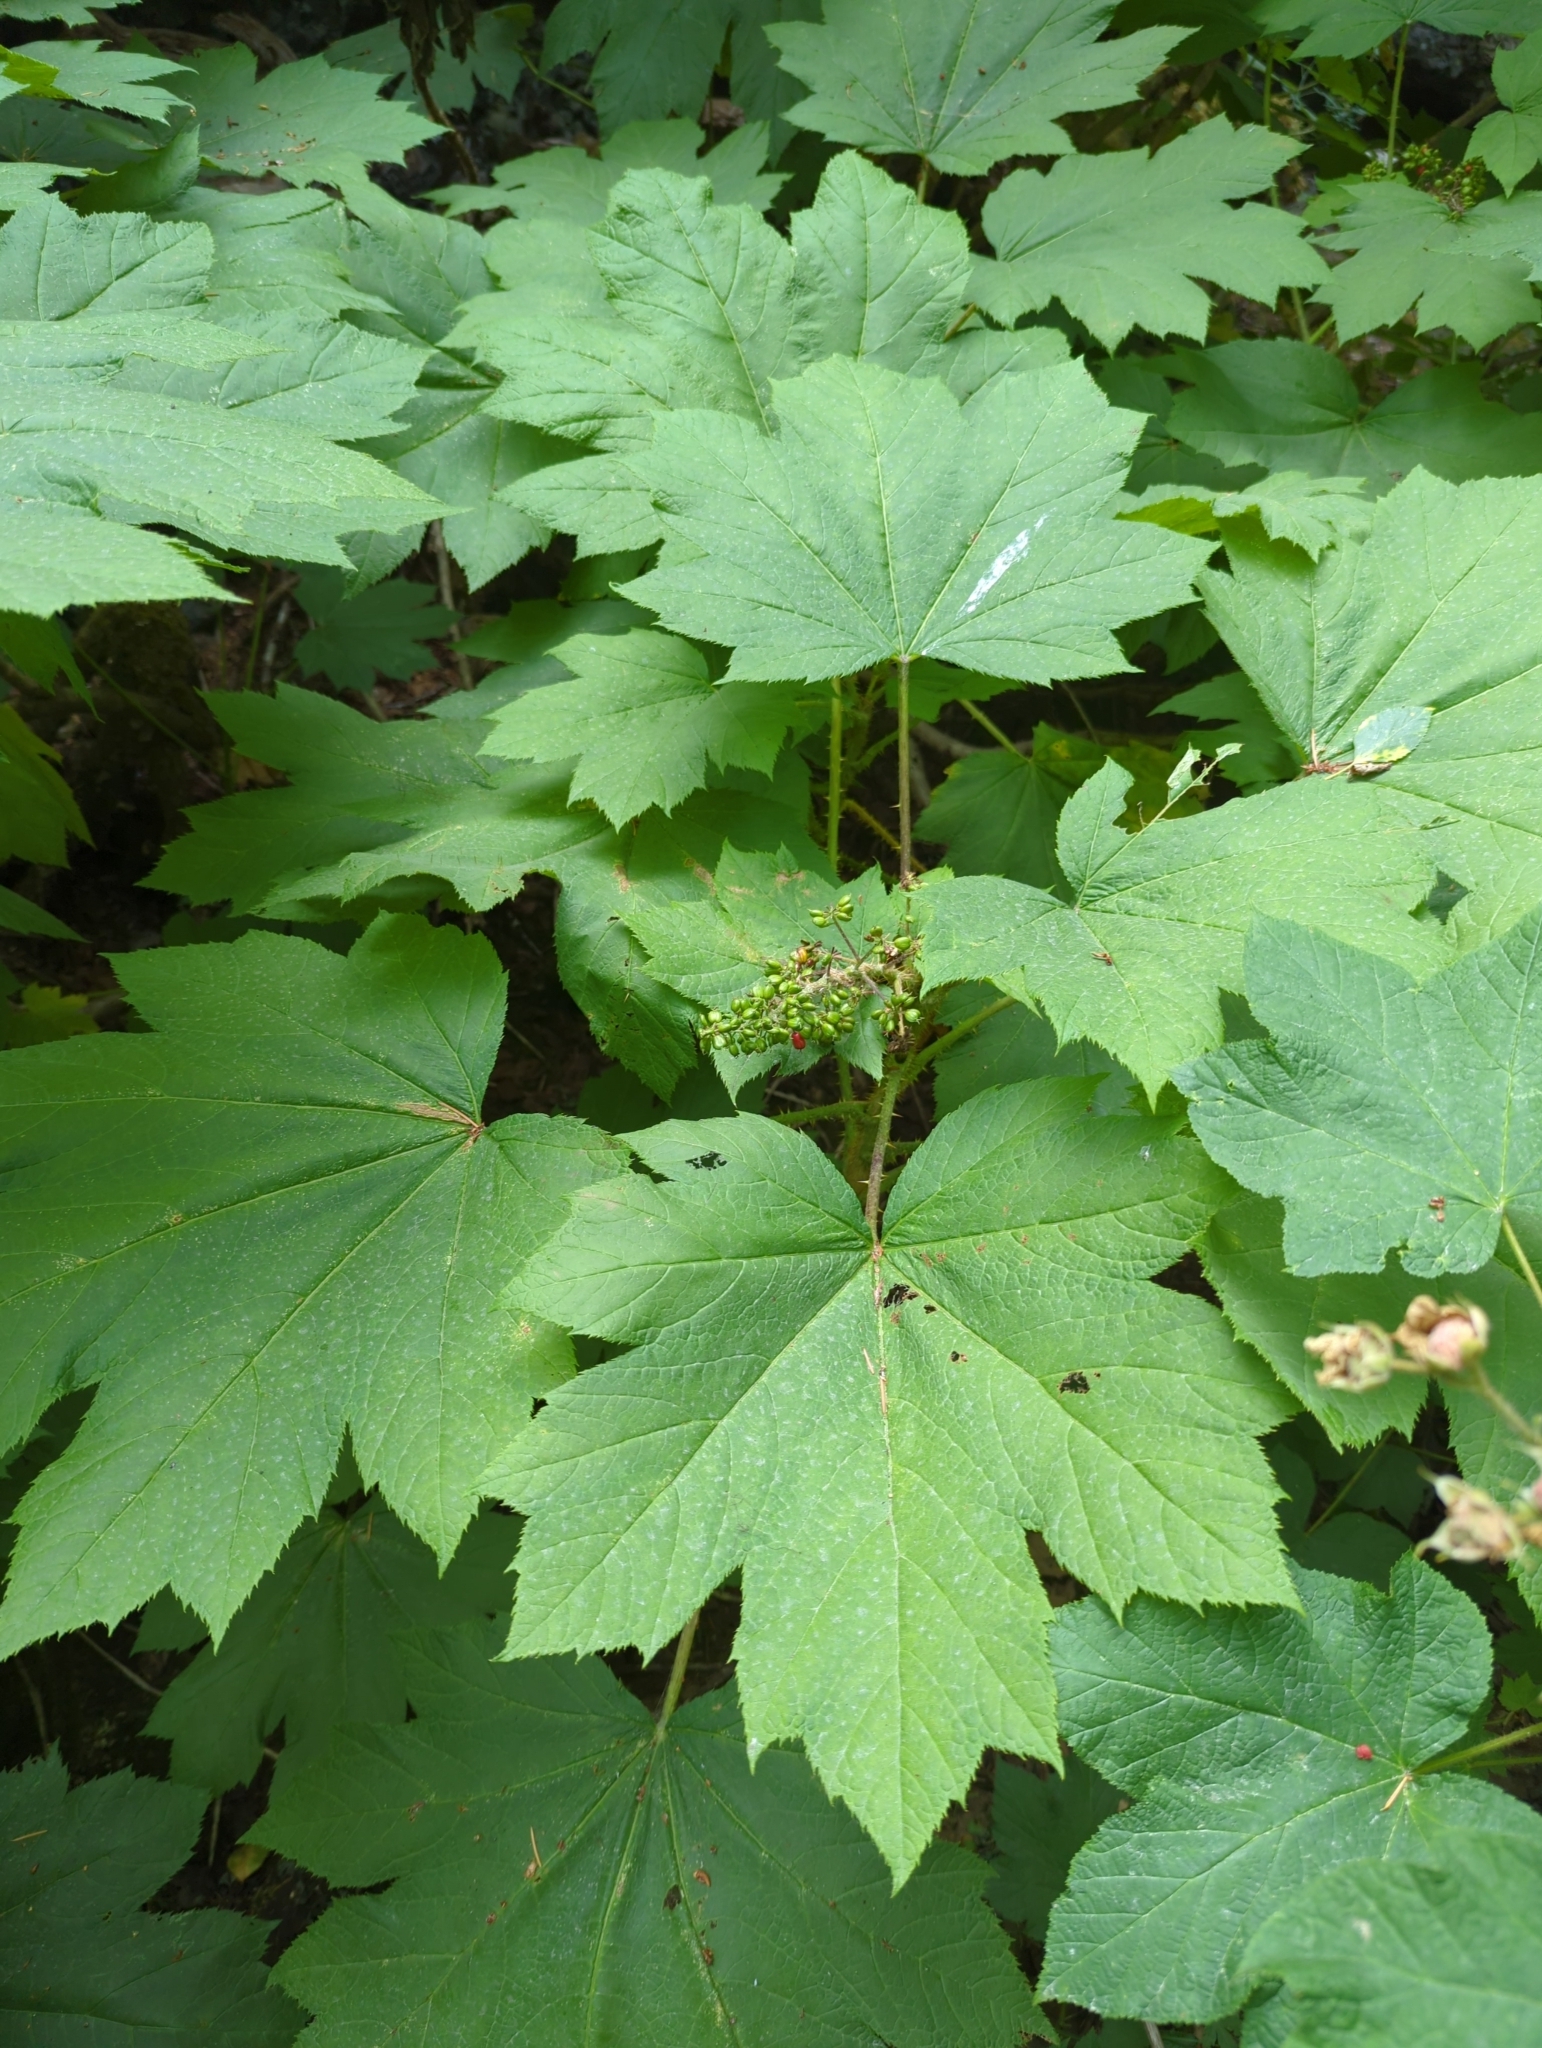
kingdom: Plantae
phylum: Tracheophyta
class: Magnoliopsida
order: Apiales
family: Araliaceae
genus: Oplopanax
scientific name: Oplopanax horridus
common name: Devil's walking-stick
